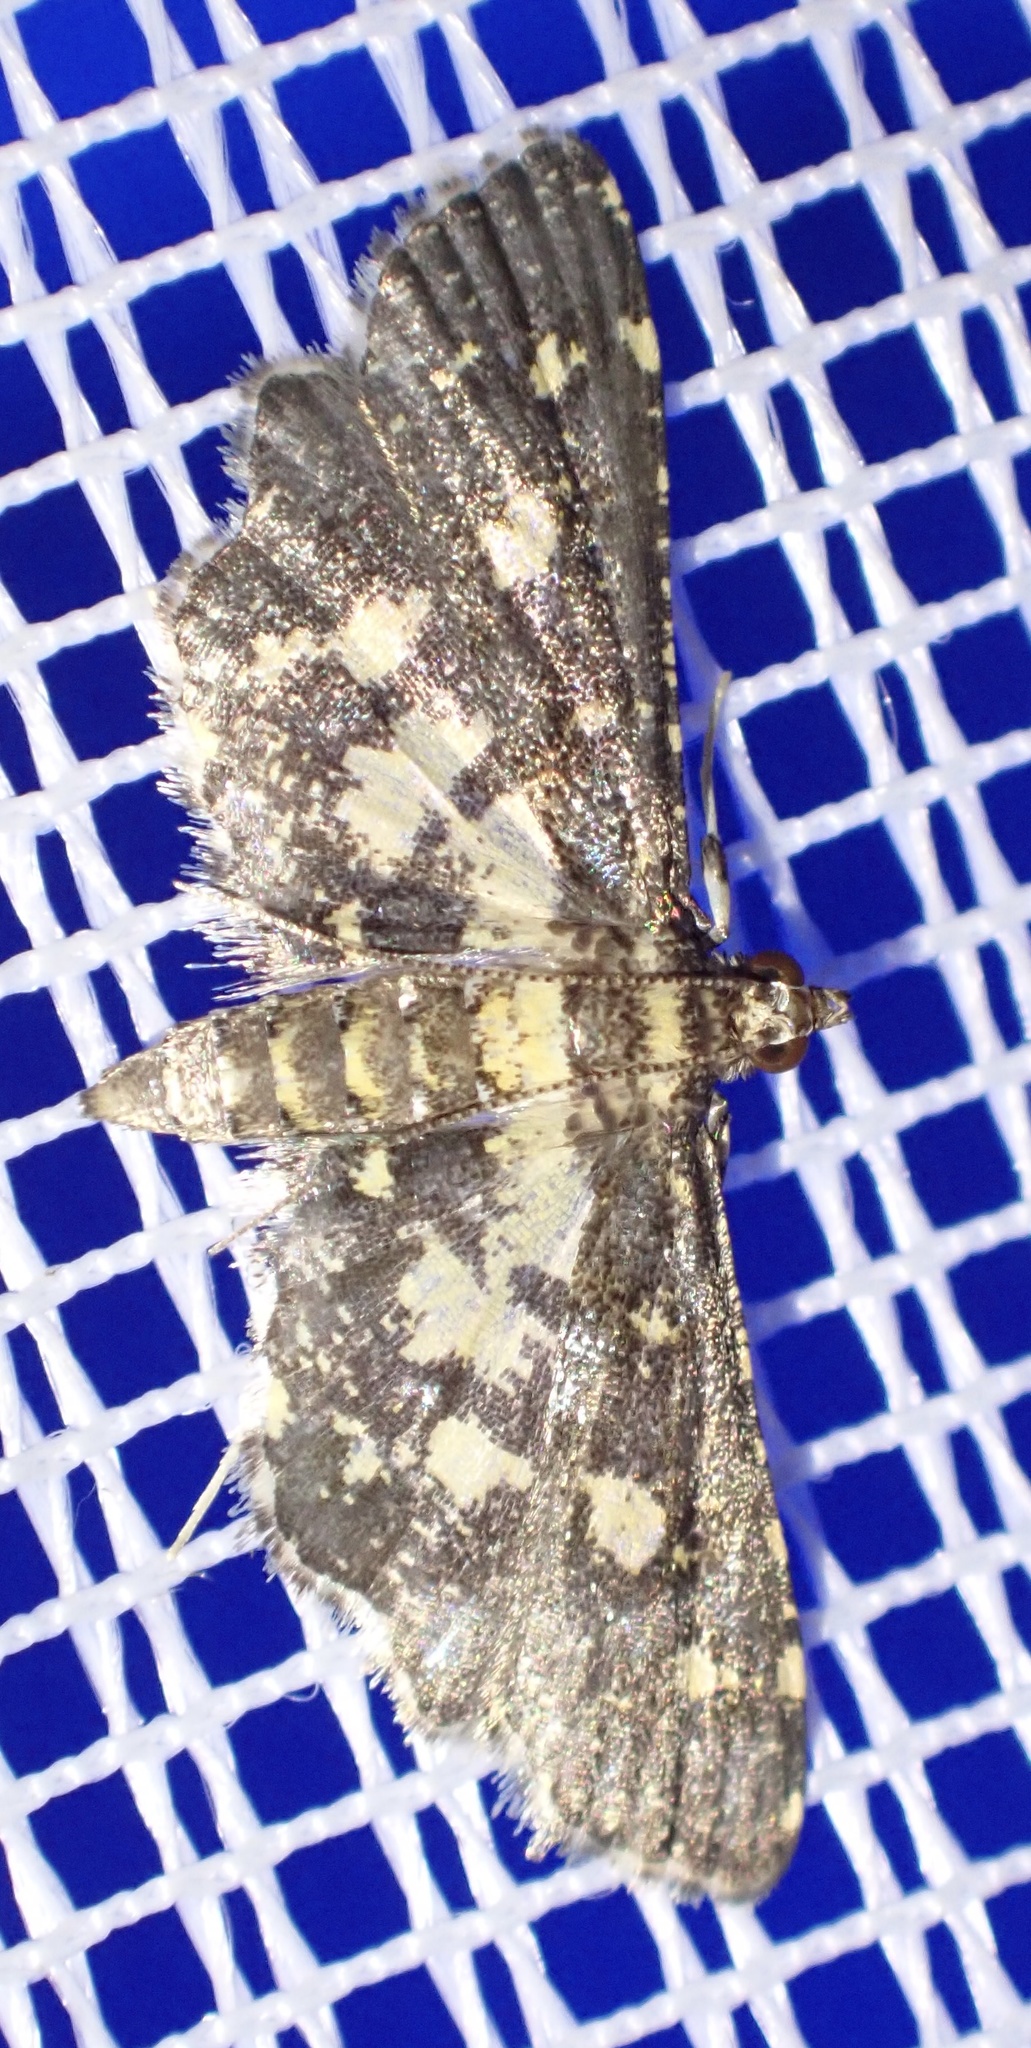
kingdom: Animalia
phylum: Arthropoda
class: Insecta
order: Lepidoptera
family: Crambidae
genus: Eurrhyparodes
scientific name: Eurrhyparodes bracteolalis
